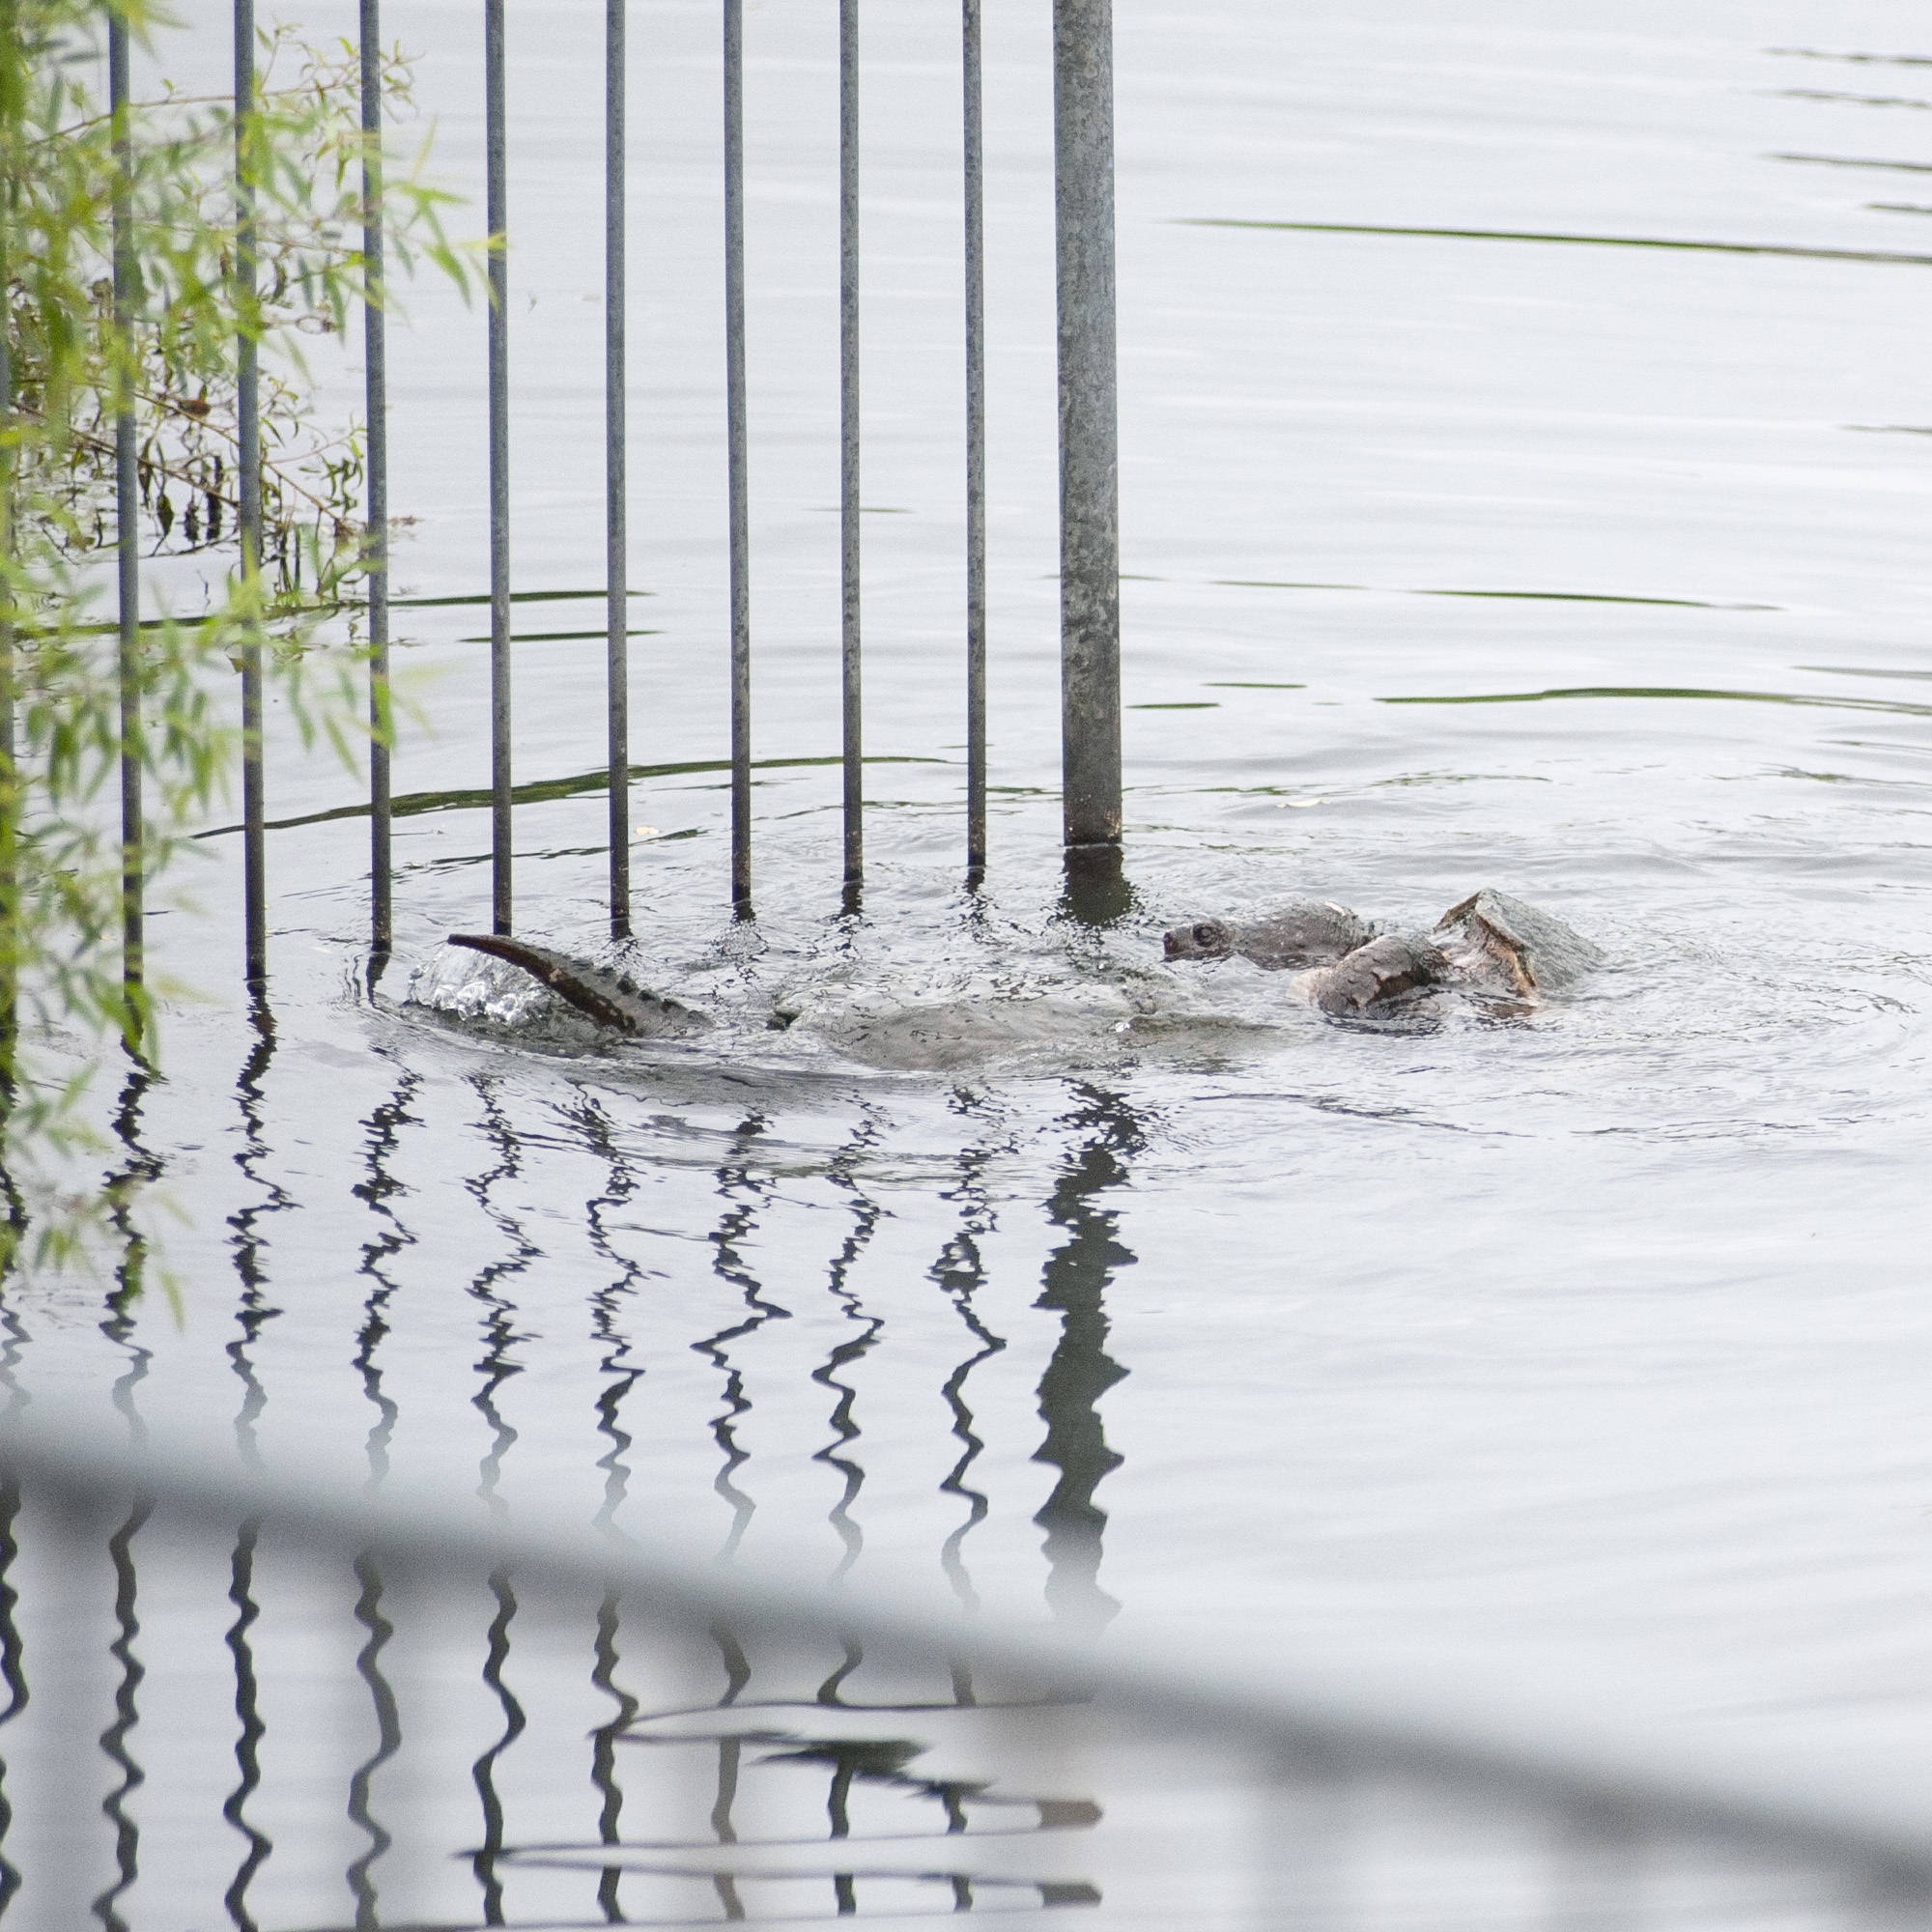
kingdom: Animalia
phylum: Chordata
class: Testudines
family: Chelydridae
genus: Chelydra
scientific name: Chelydra serpentina
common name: Common snapping turtle
